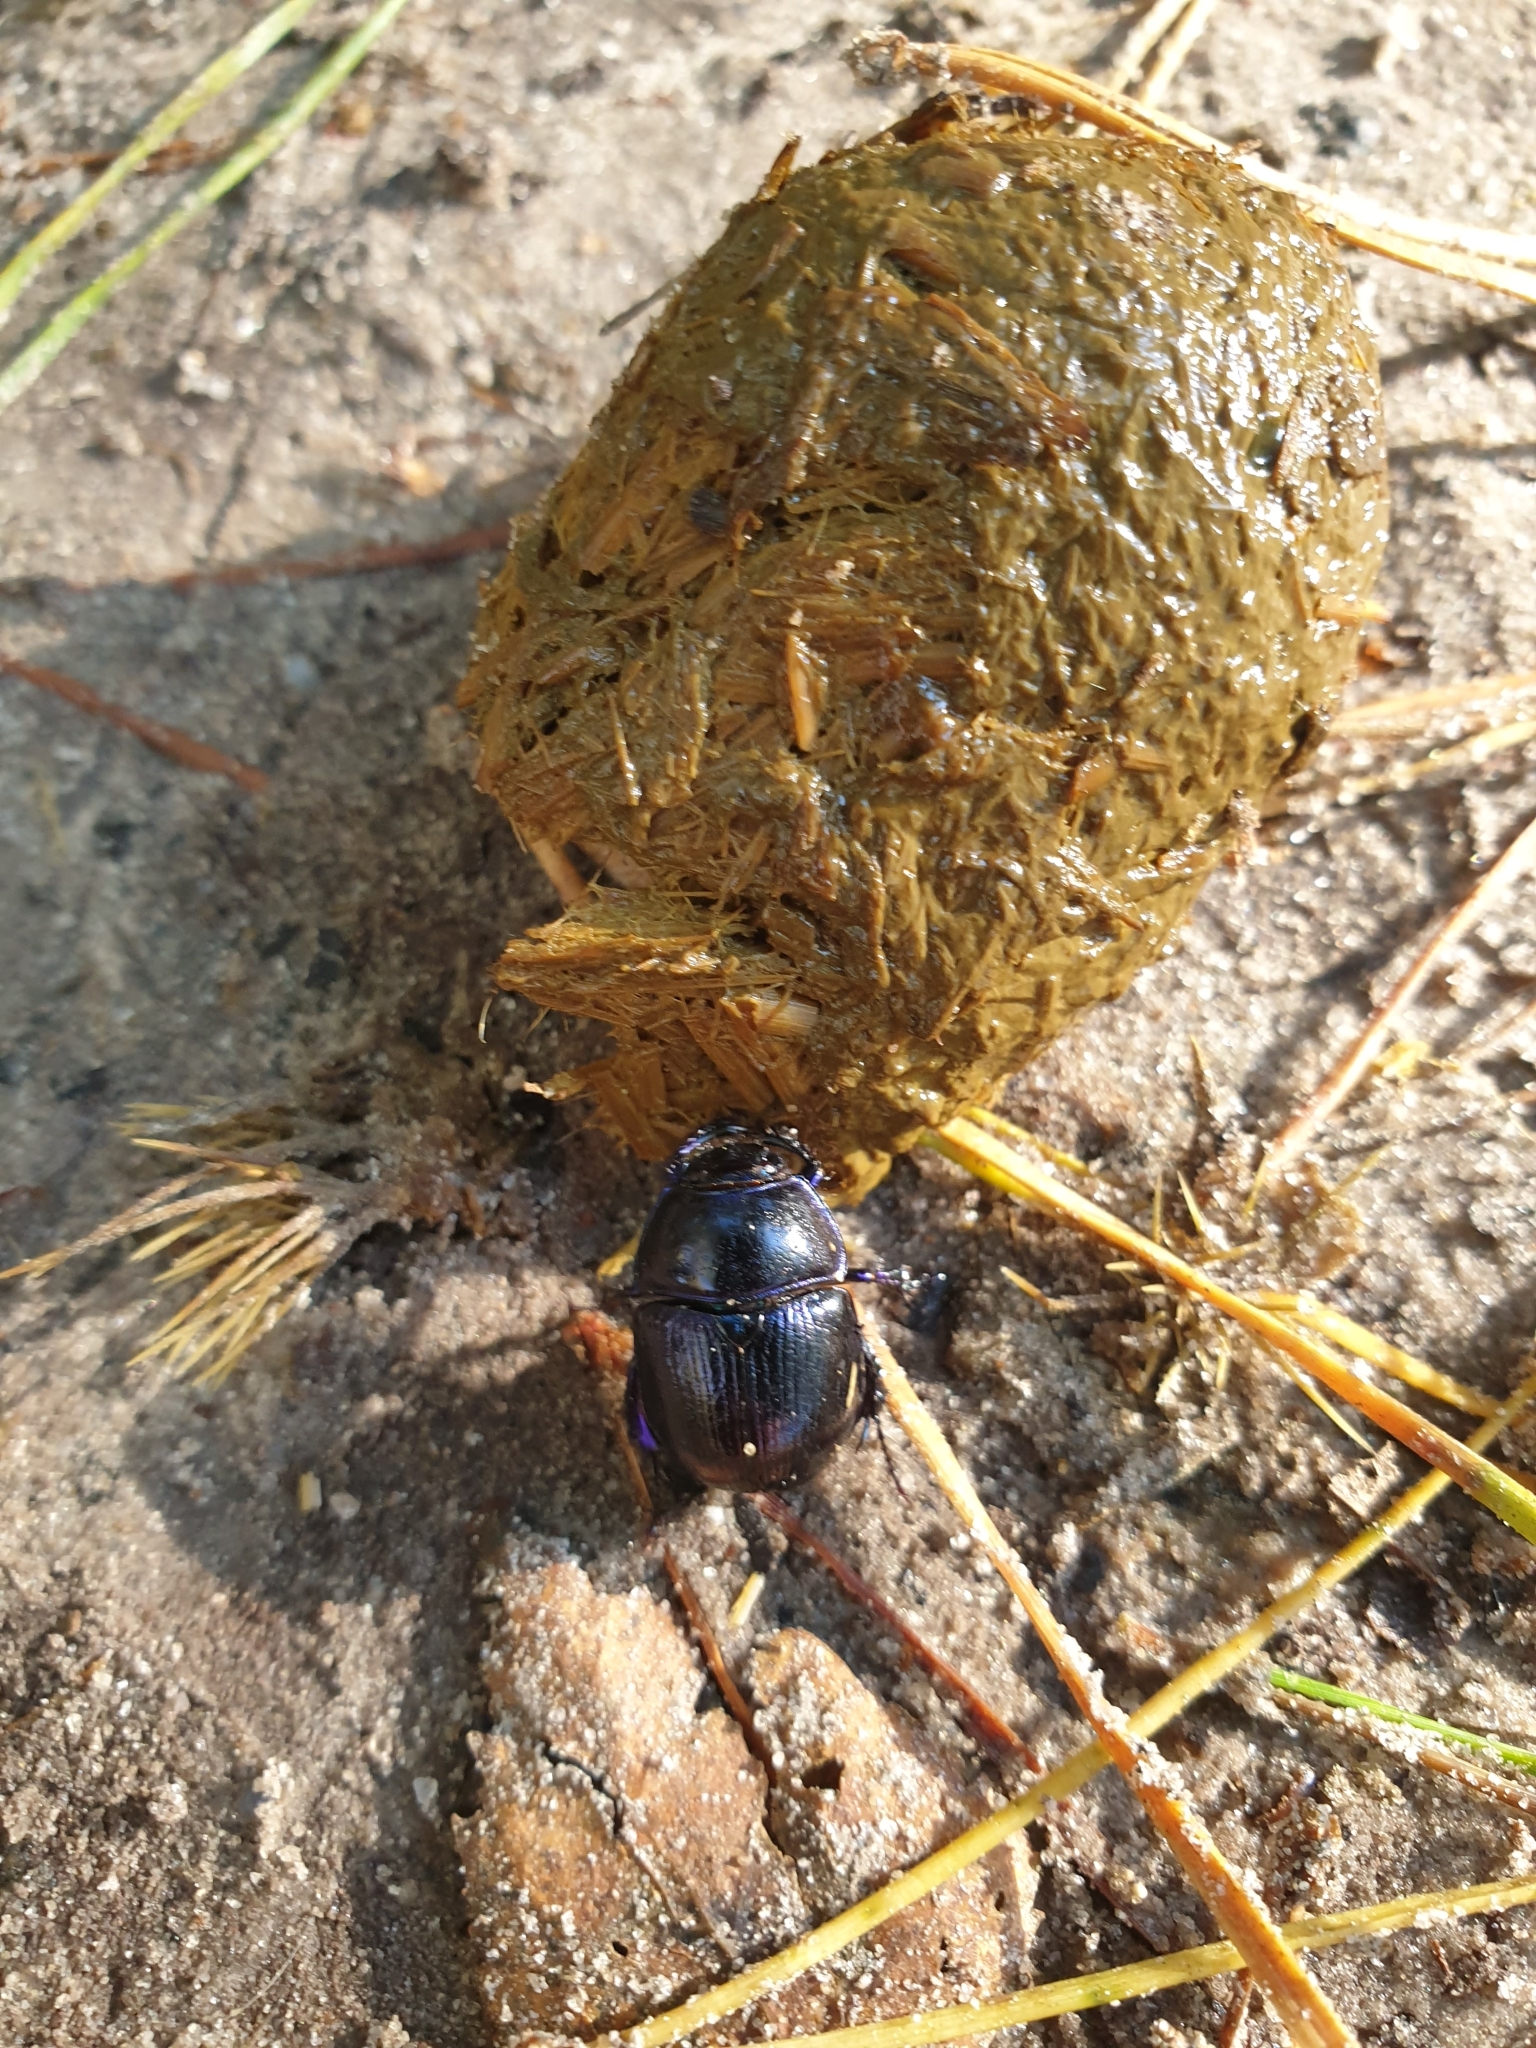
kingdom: Animalia
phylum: Arthropoda
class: Insecta
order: Coleoptera
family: Geotrupidae
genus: Anoplotrupes
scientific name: Anoplotrupes stercorosus
